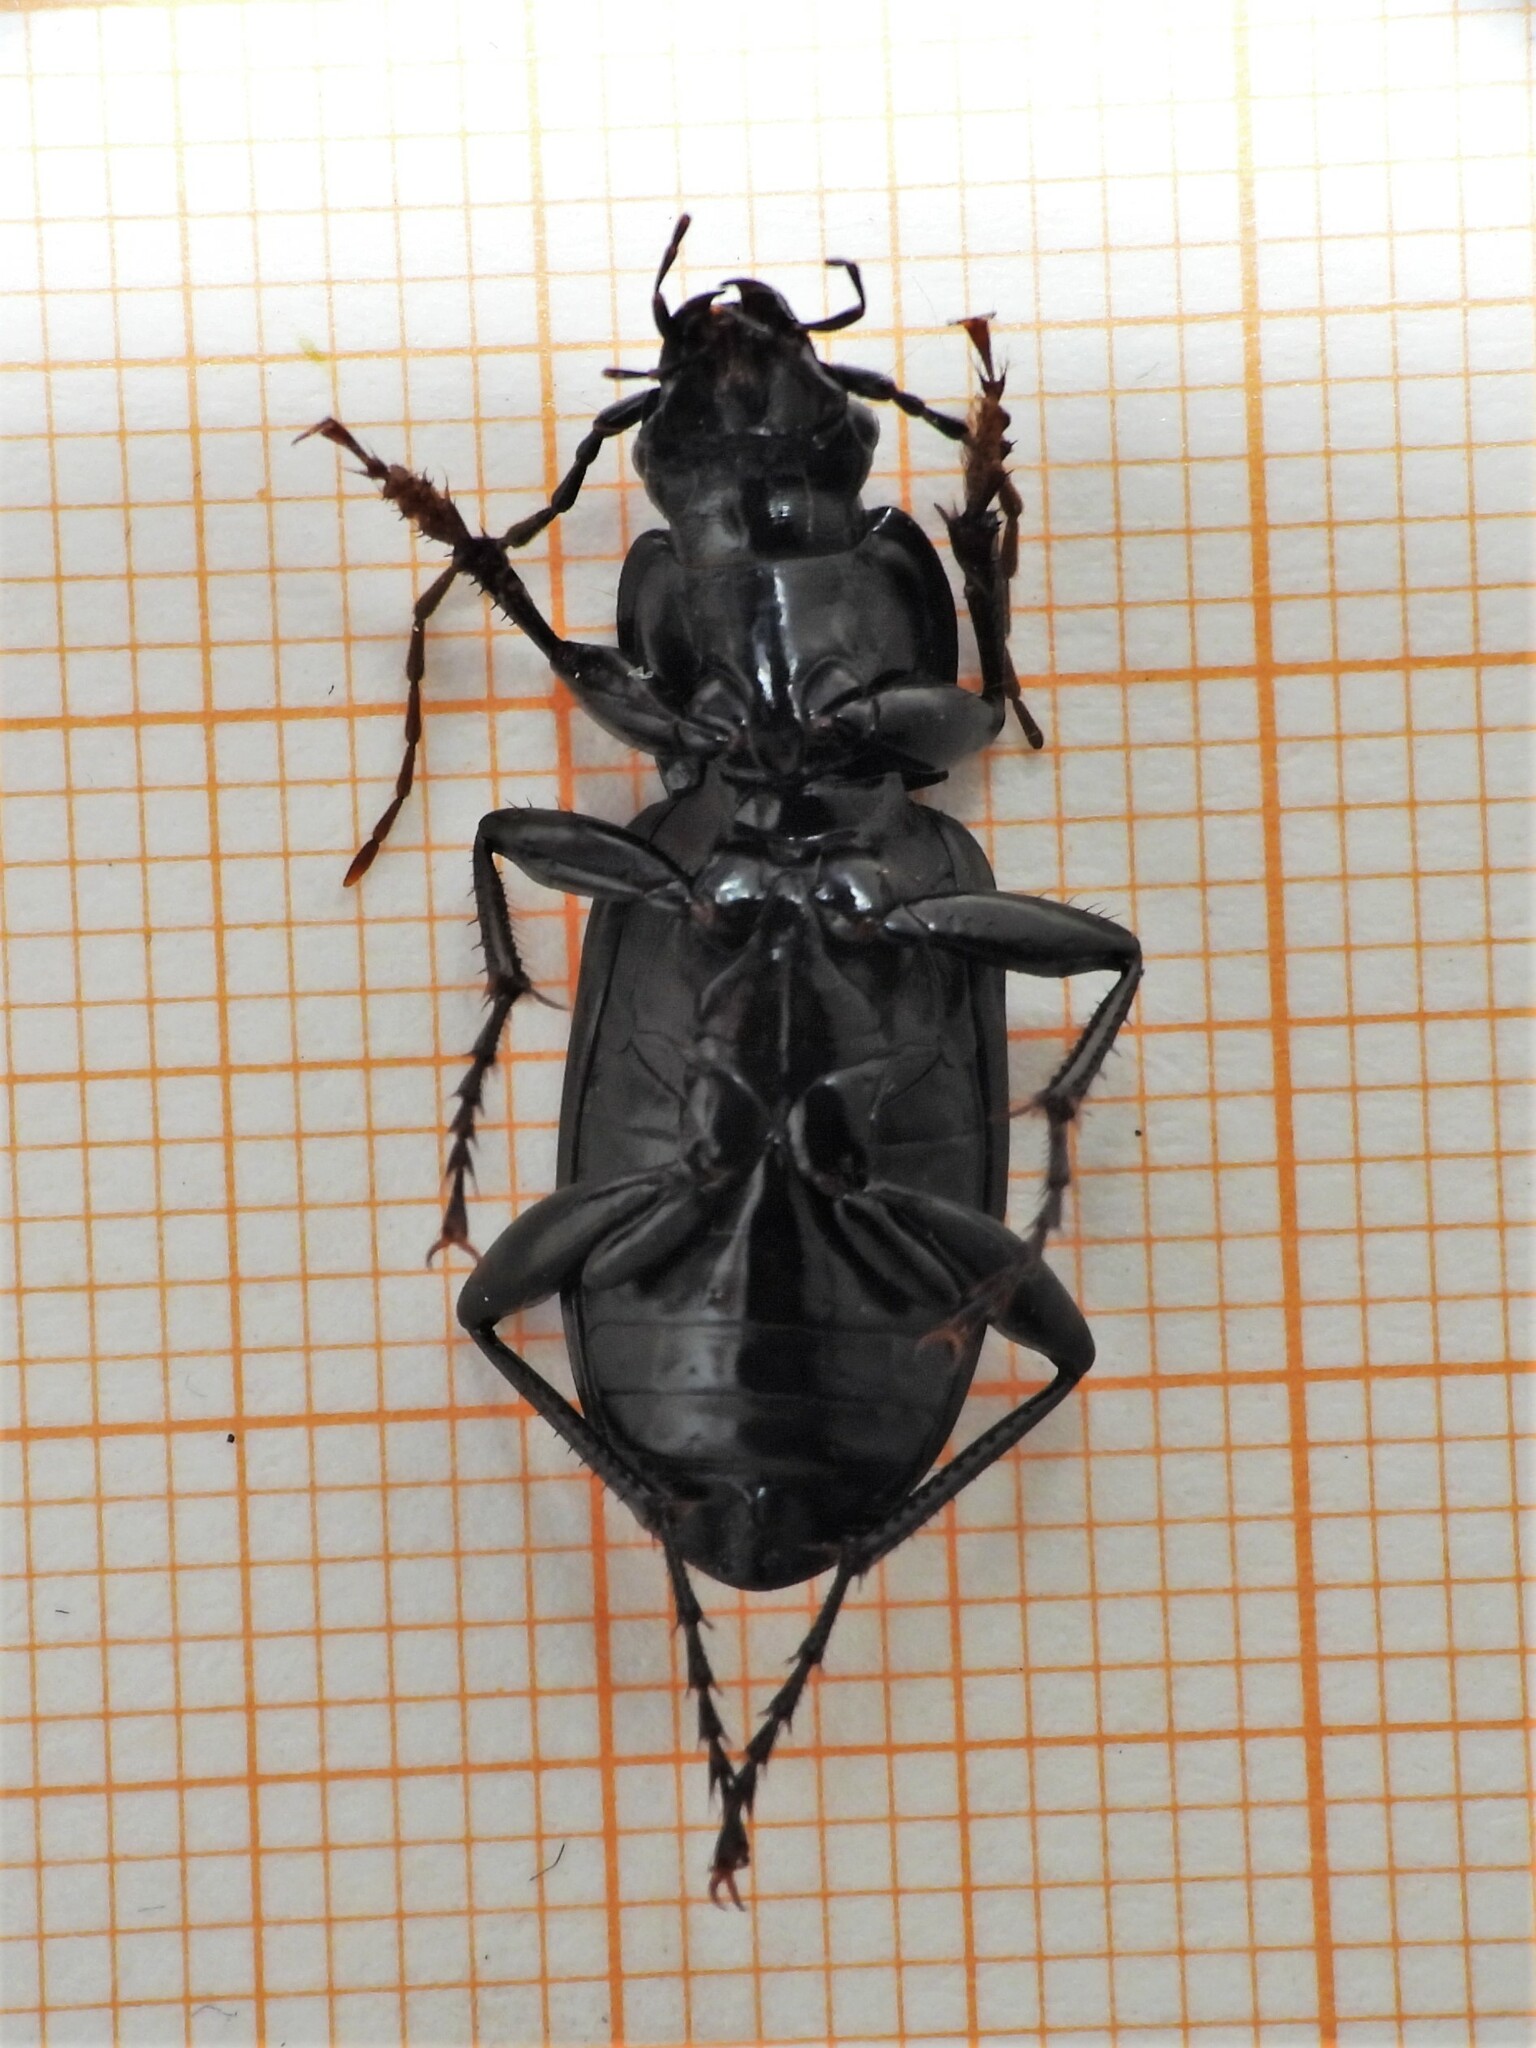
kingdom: Animalia
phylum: Arthropoda
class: Insecta
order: Coleoptera
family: Carabidae
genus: Pterostichus
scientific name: Pterostichus niger
